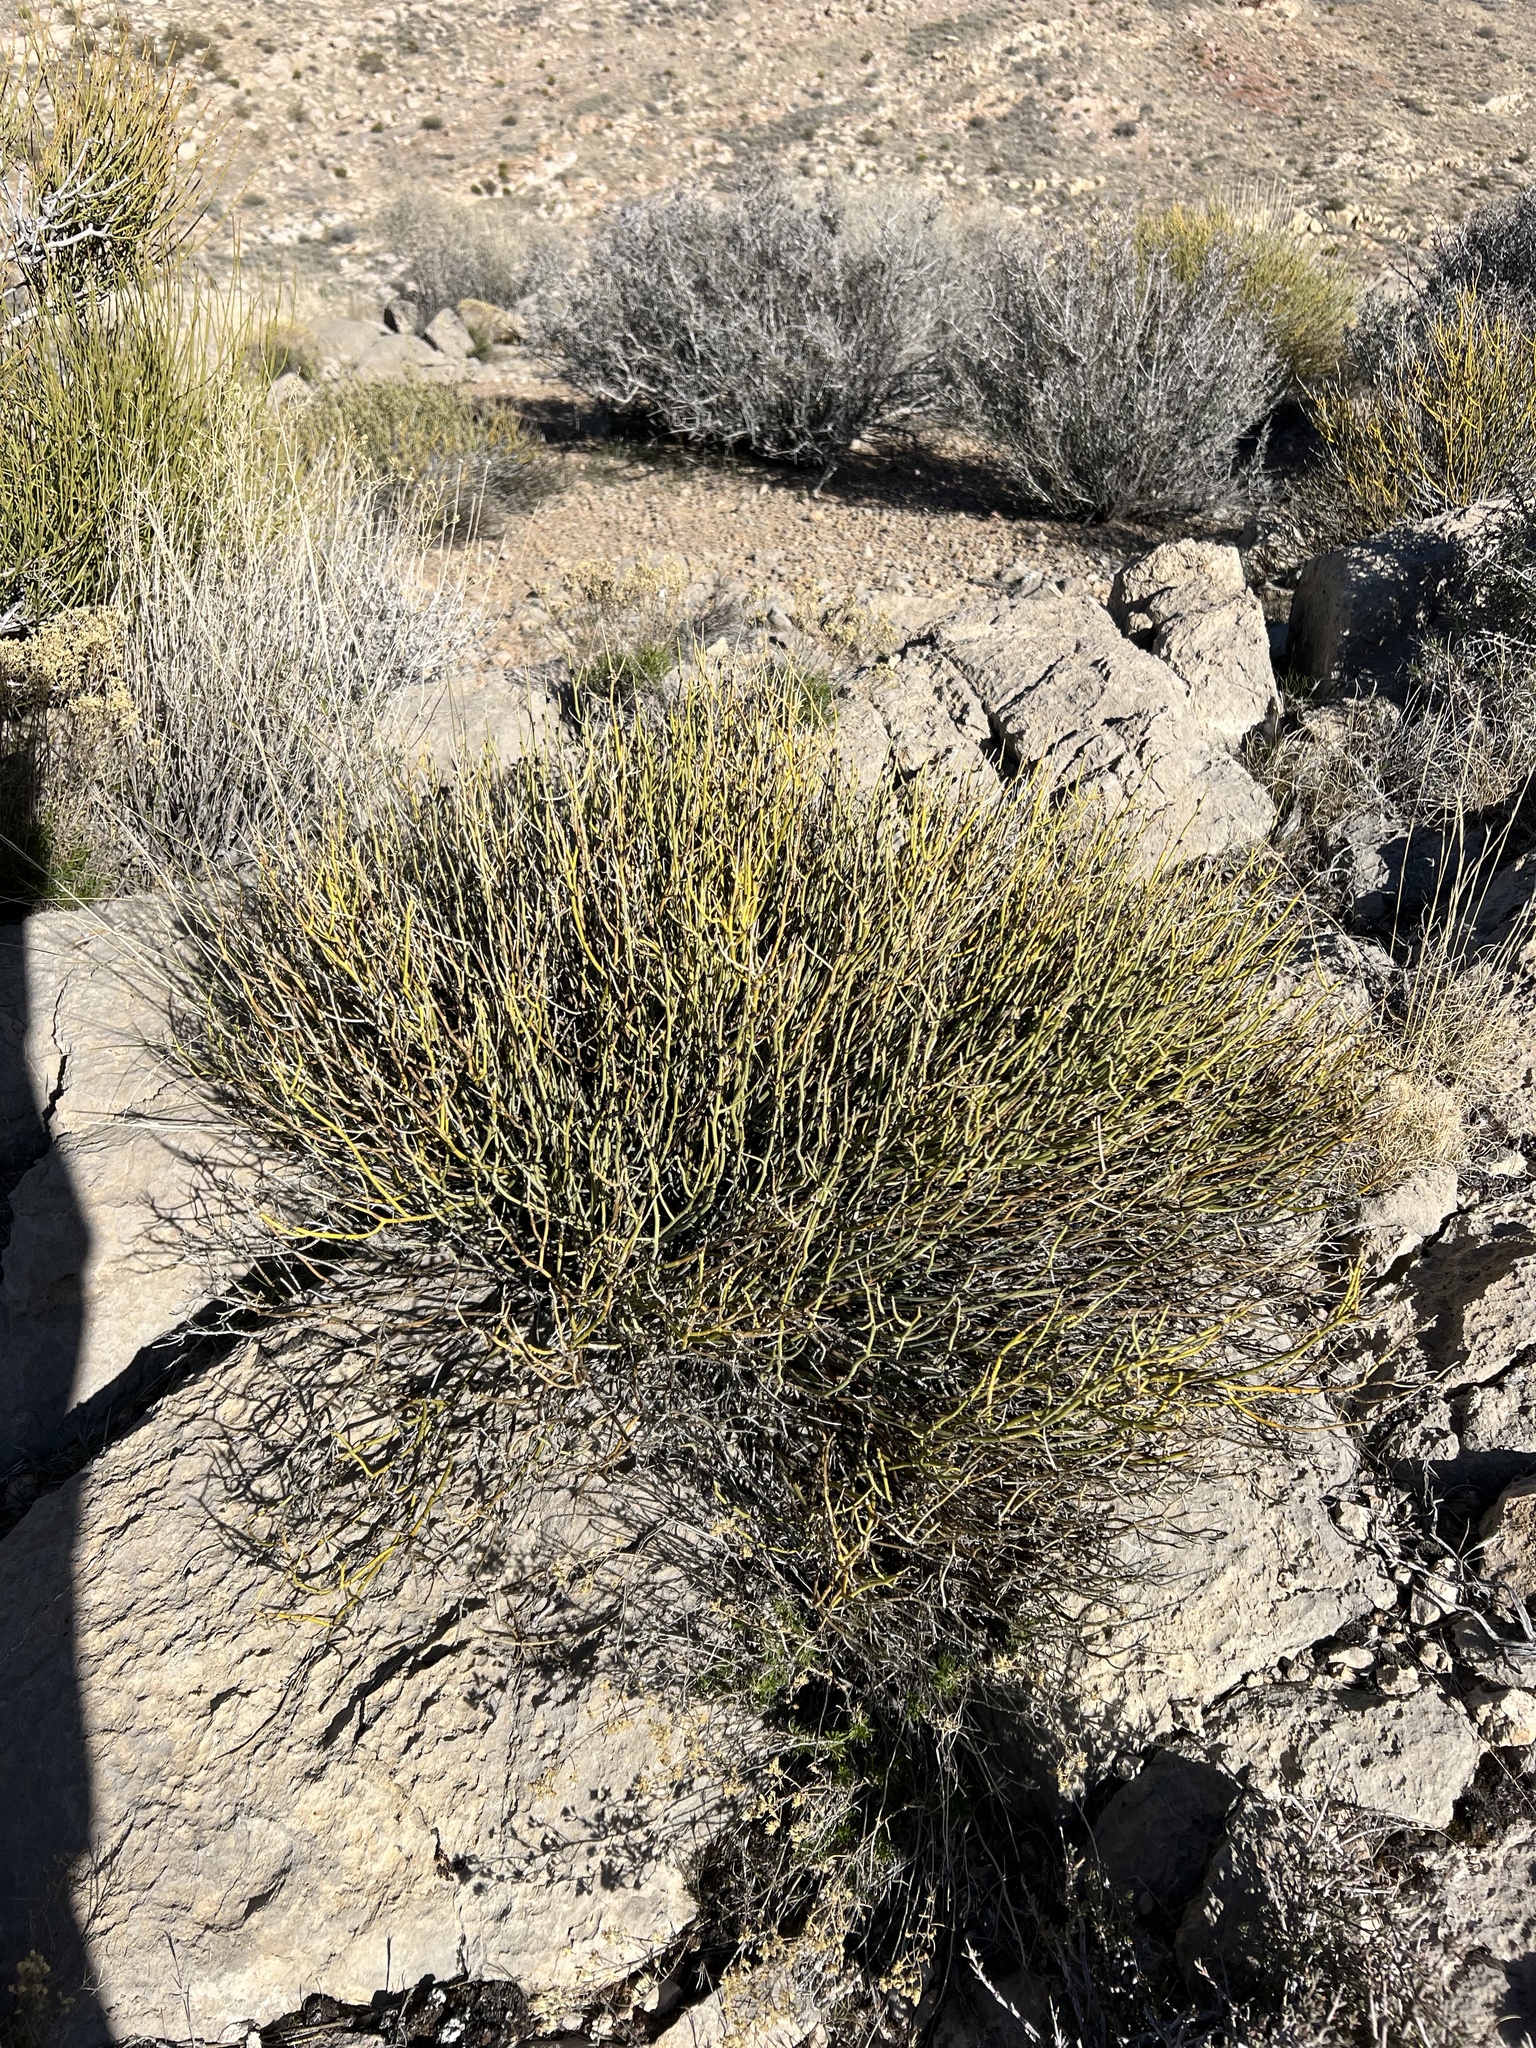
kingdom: Plantae
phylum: Tracheophyta
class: Magnoliopsida
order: Sapindales
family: Rutaceae
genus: Thamnosma
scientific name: Thamnosma montana
